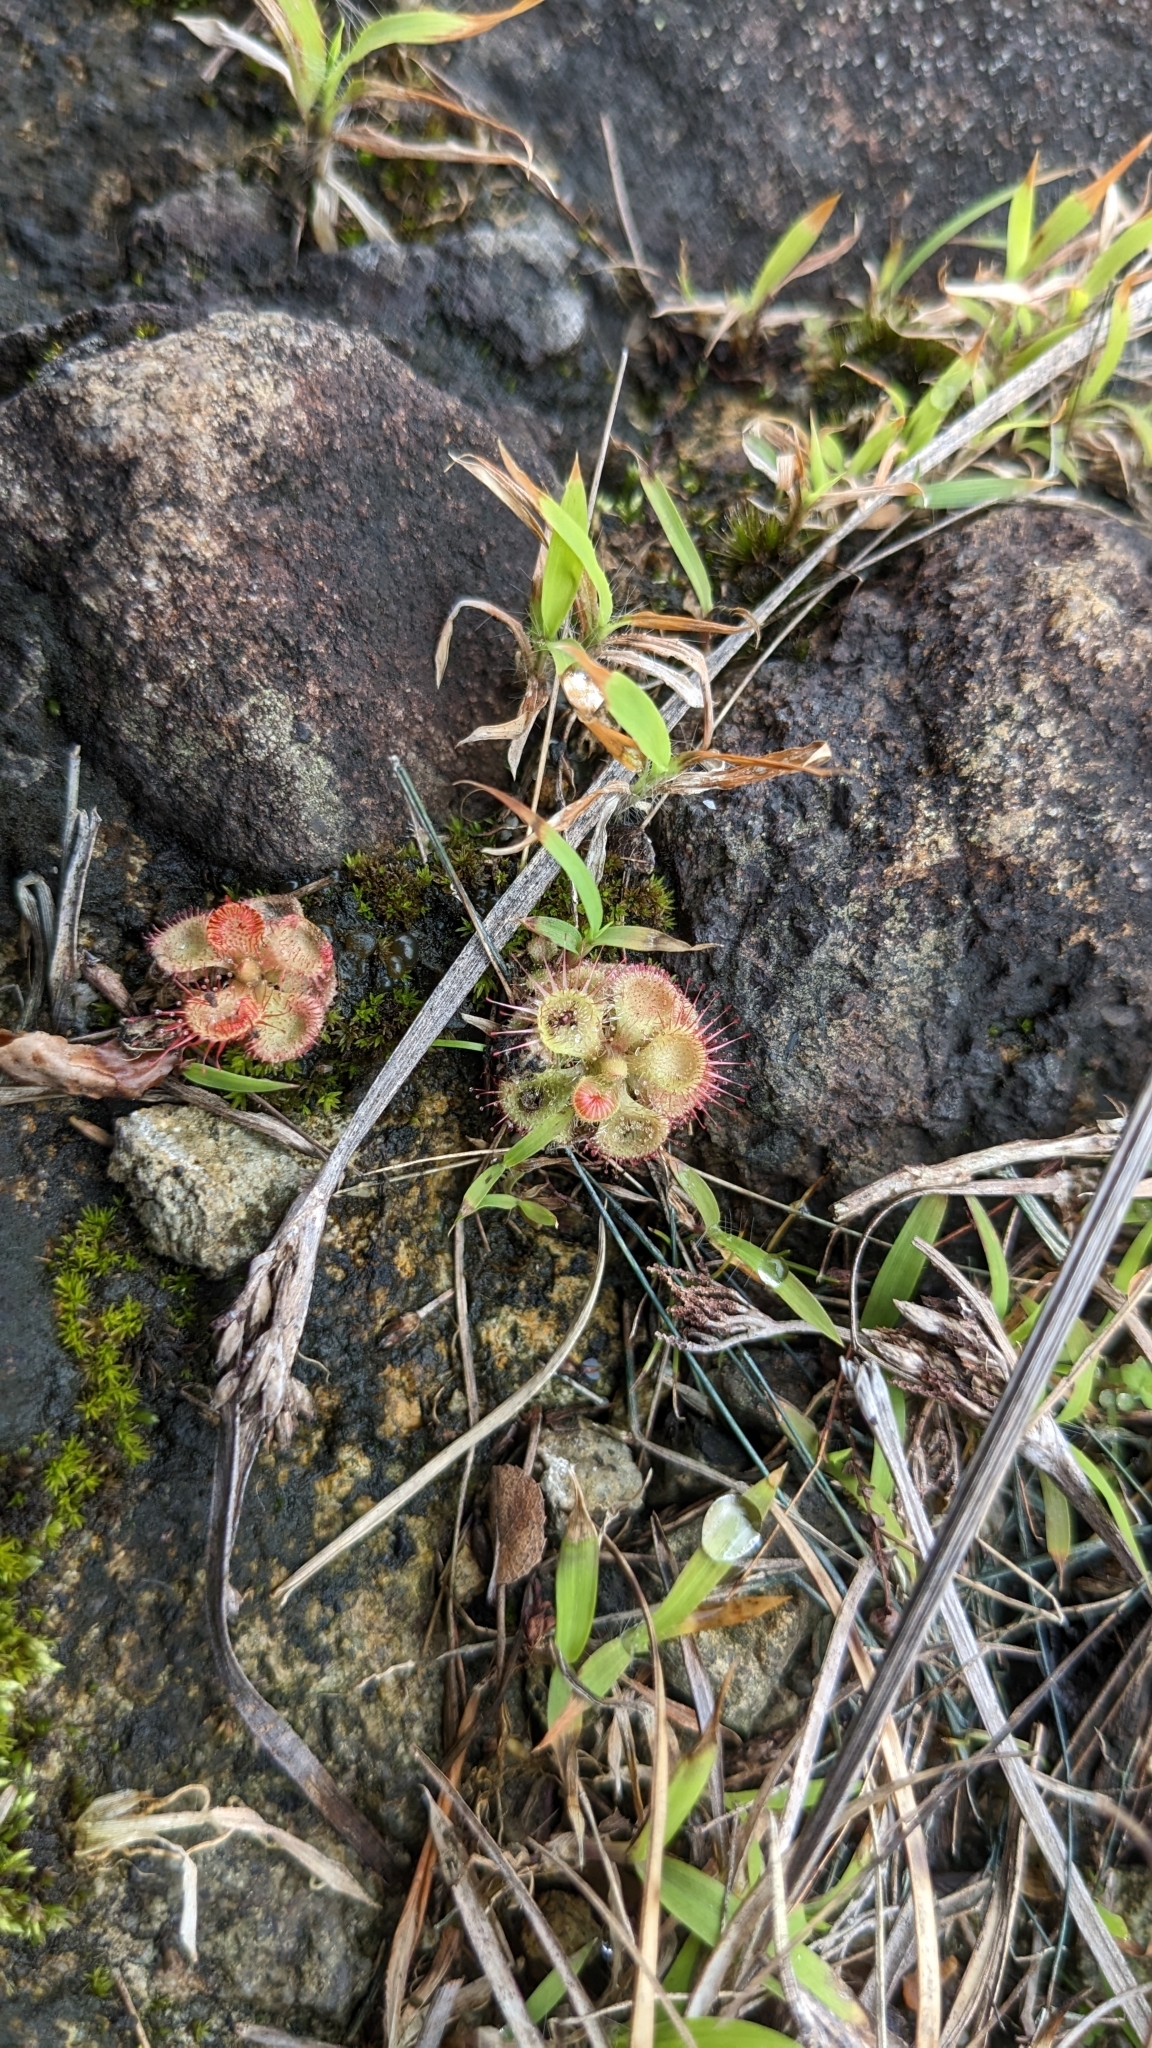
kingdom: Plantae
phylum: Tracheophyta
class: Magnoliopsida
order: Caryophyllales
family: Droseraceae
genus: Drosera
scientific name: Drosera spatulata
